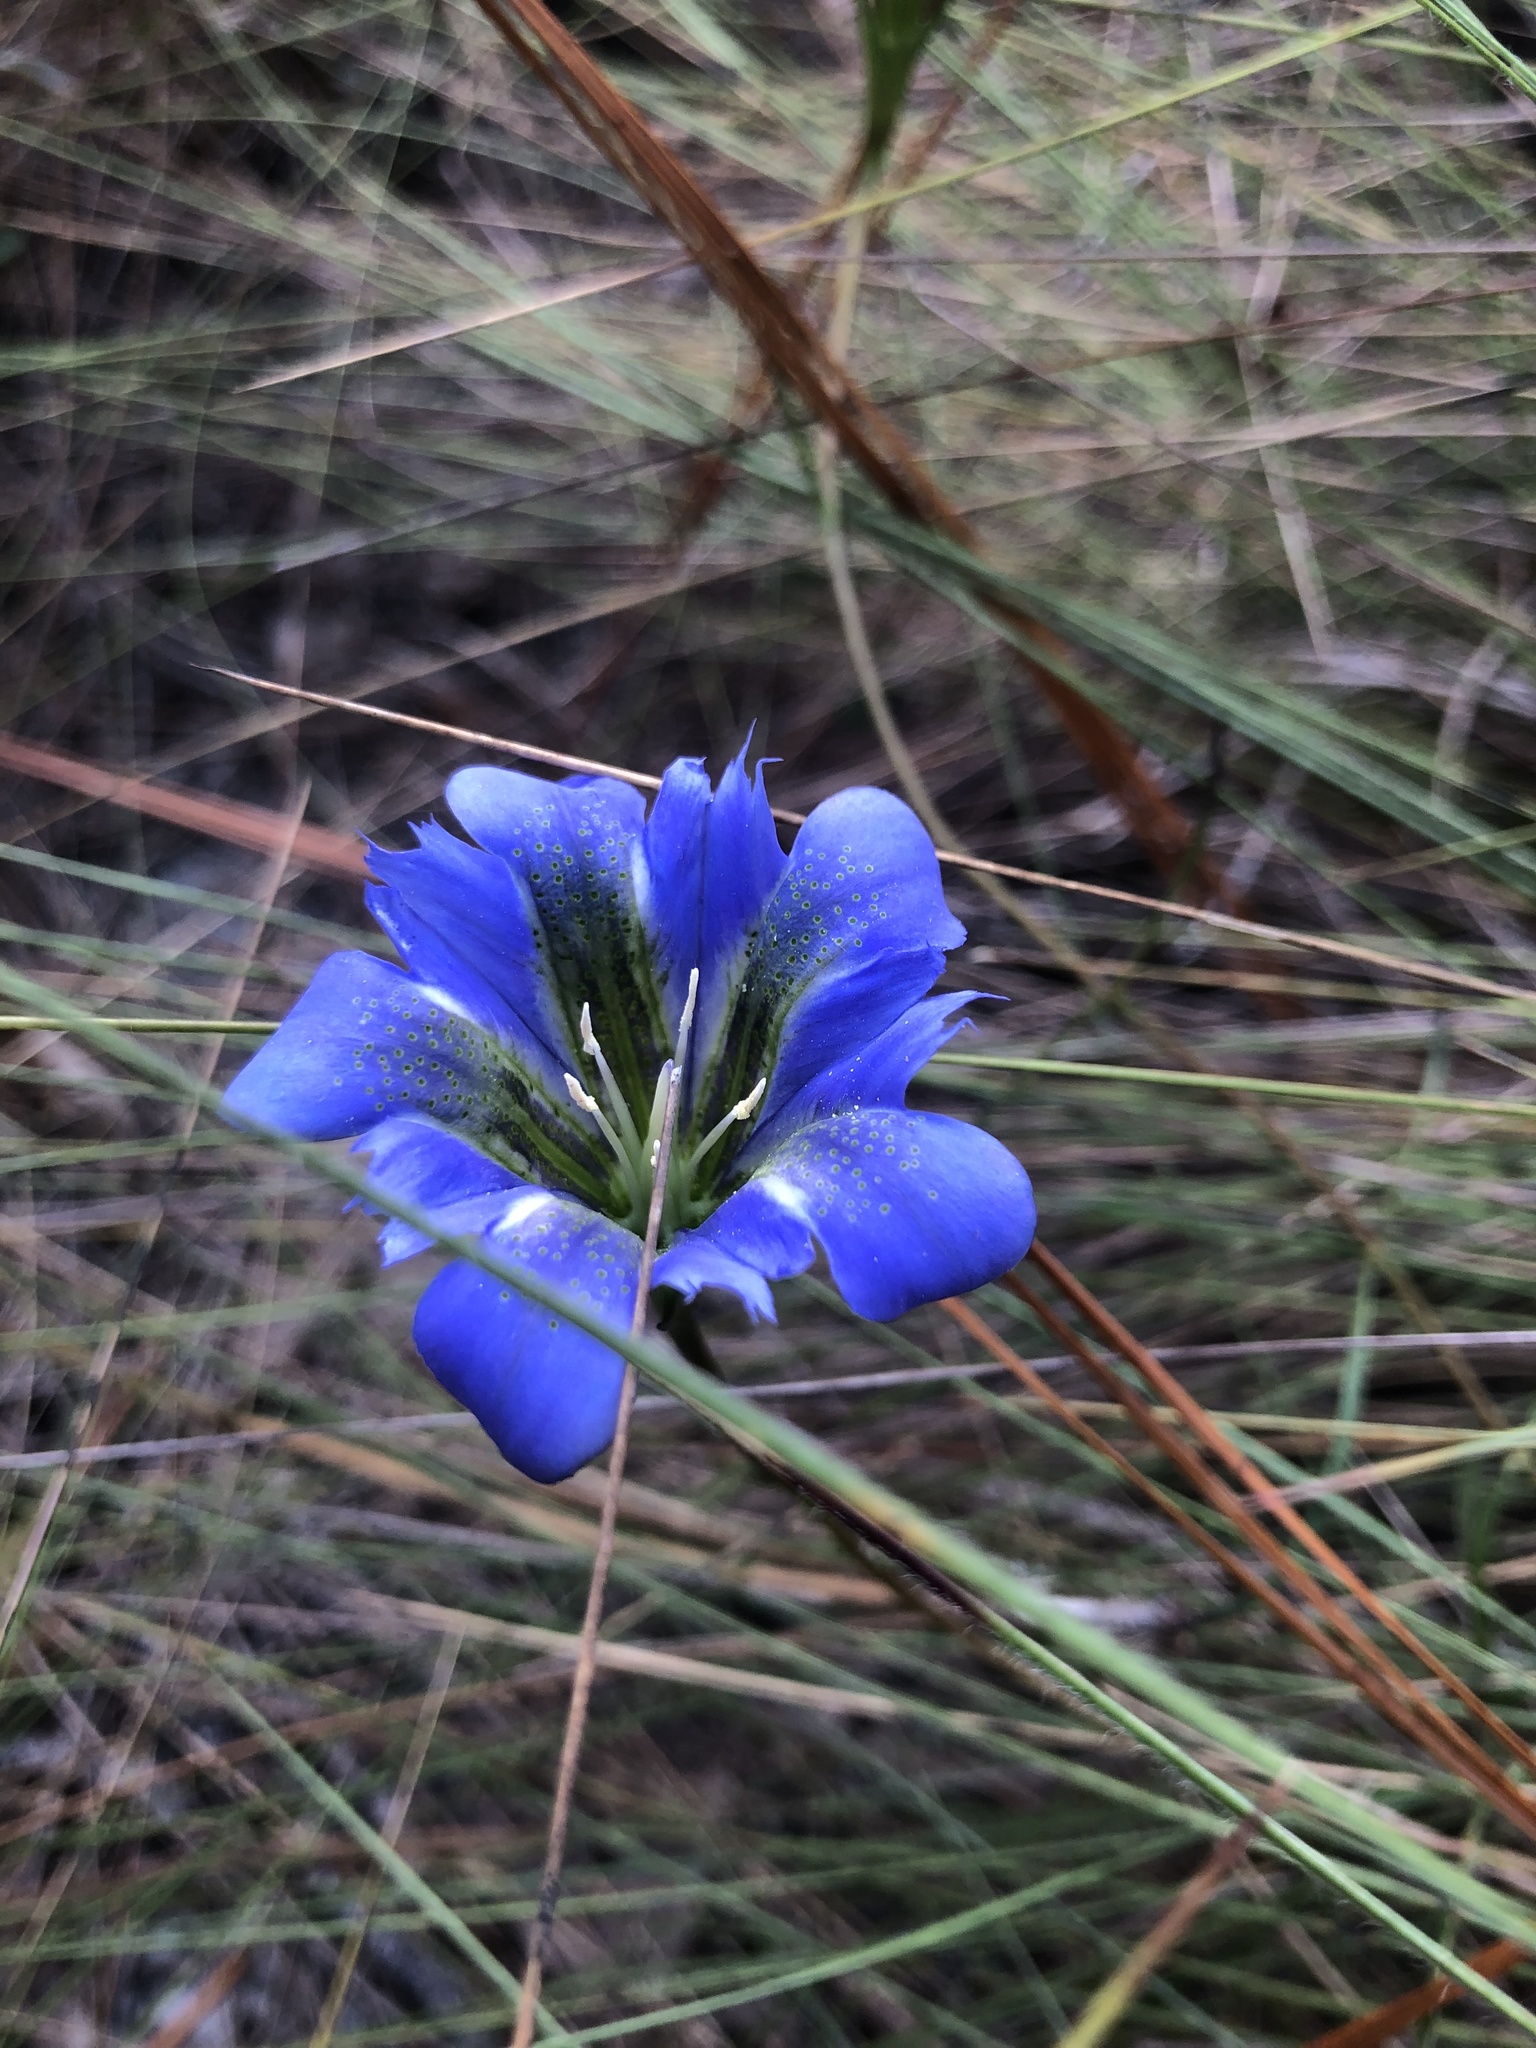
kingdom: Plantae
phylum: Tracheophyta
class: Magnoliopsida
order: Gentianales
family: Gentianaceae
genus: Gentiana
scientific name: Gentiana autumnalis
